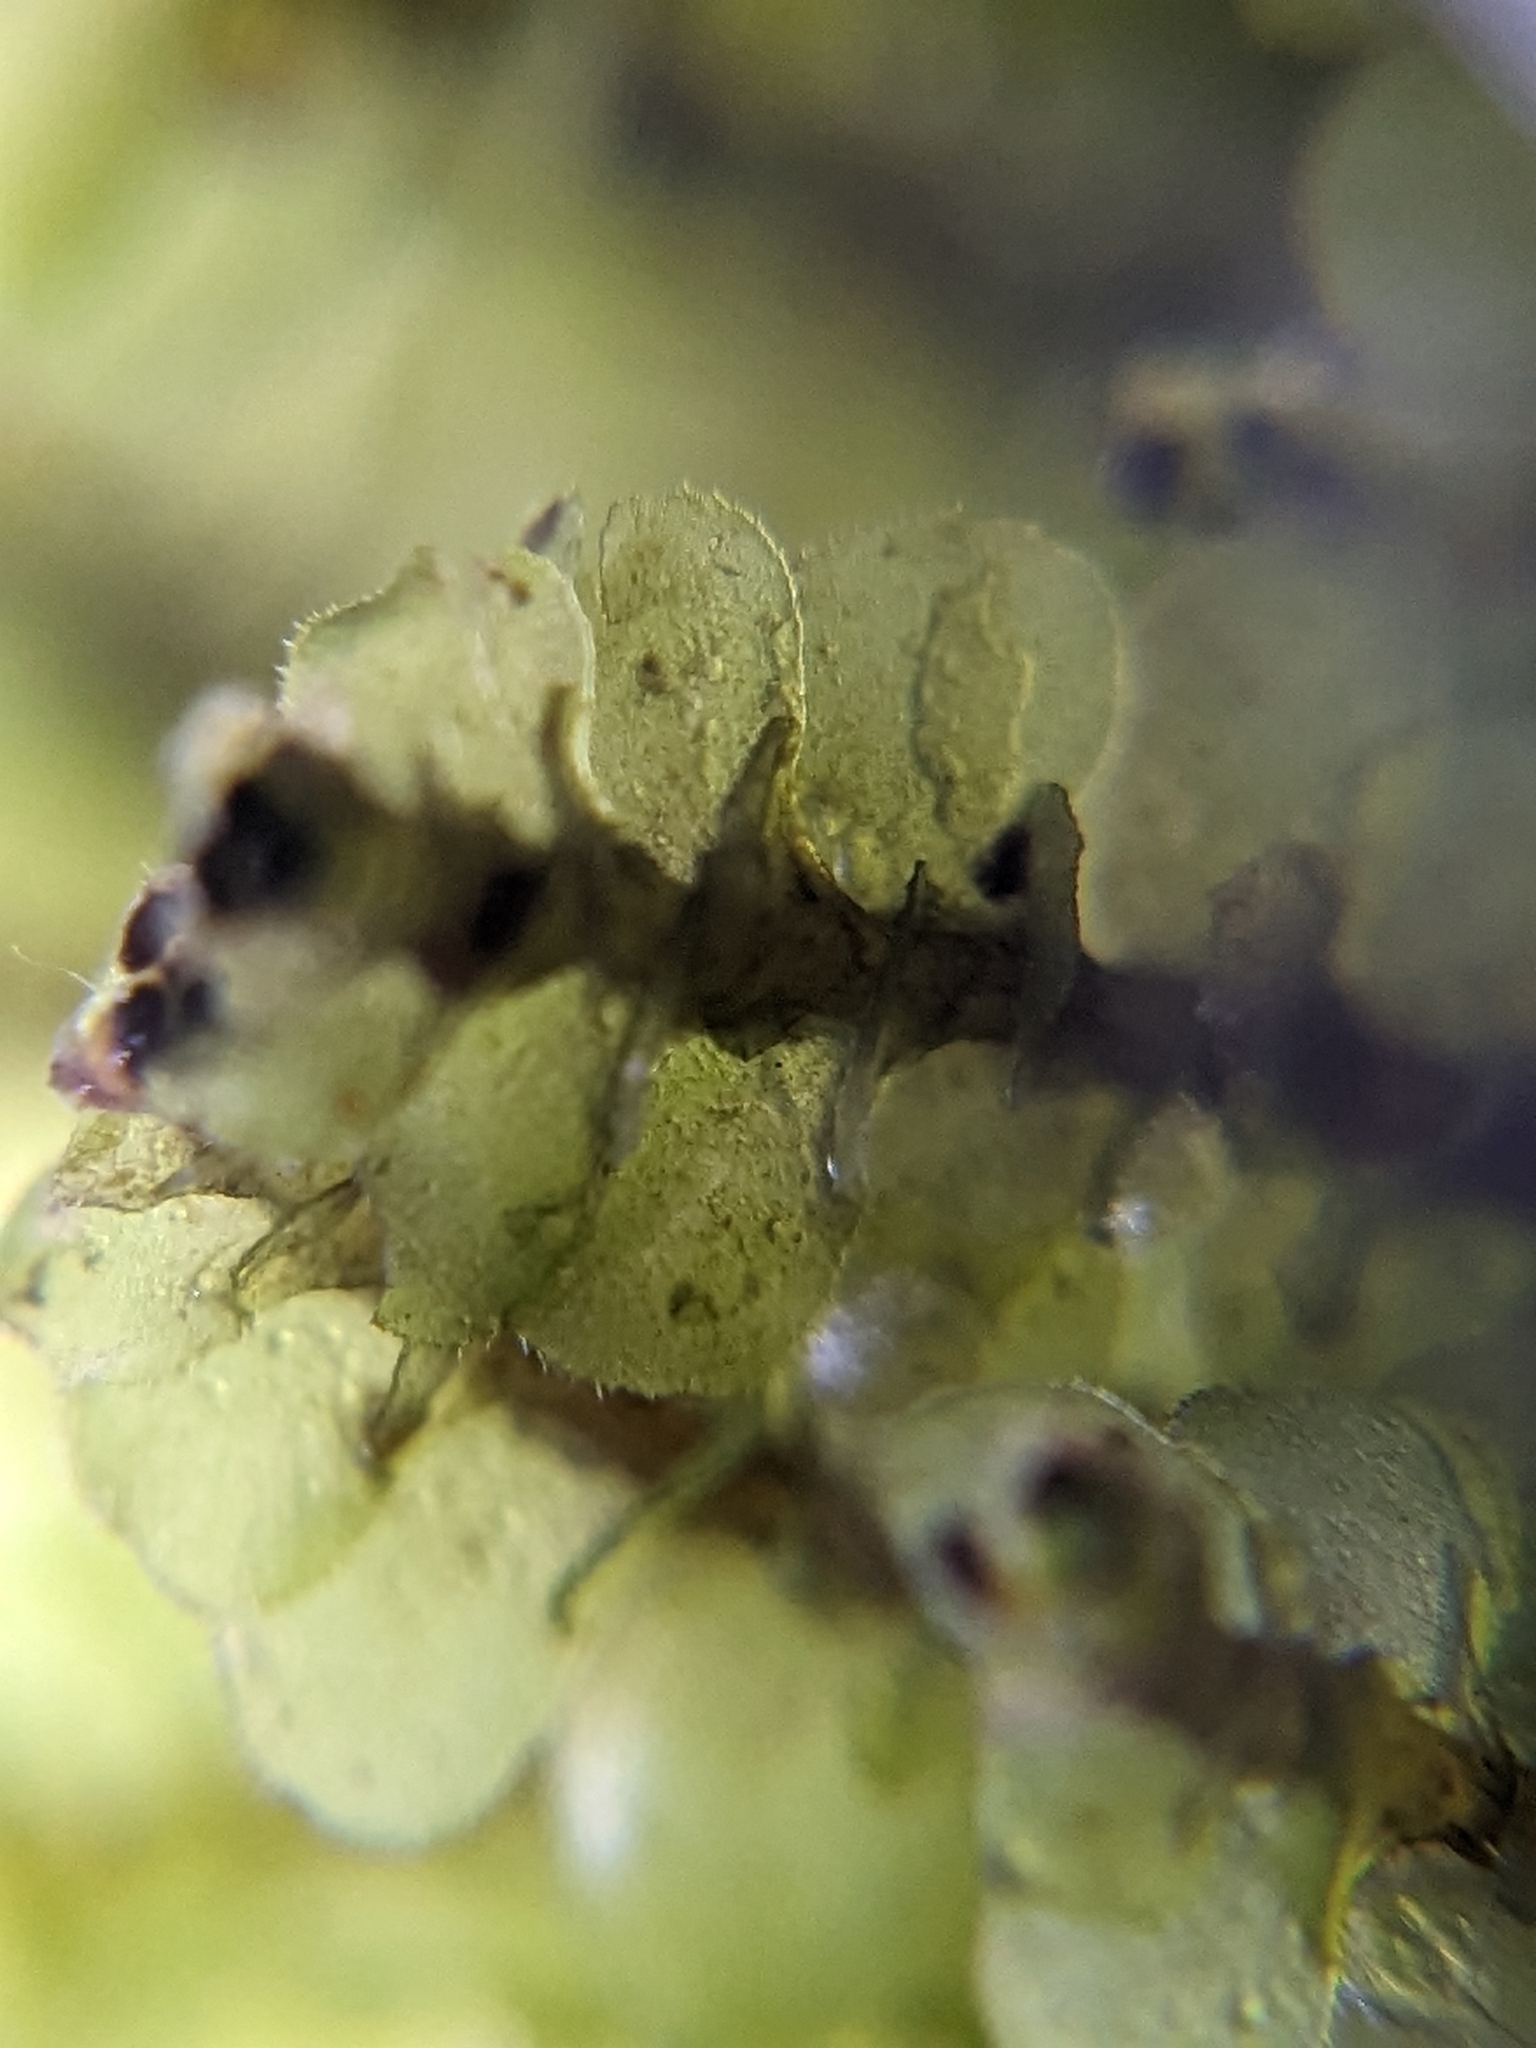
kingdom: Plantae
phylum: Marchantiophyta
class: Jungermanniopsida
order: Jungermanniales
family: Scapaniaceae
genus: Scapania
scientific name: Scapania nemorea
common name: Grove earwort
